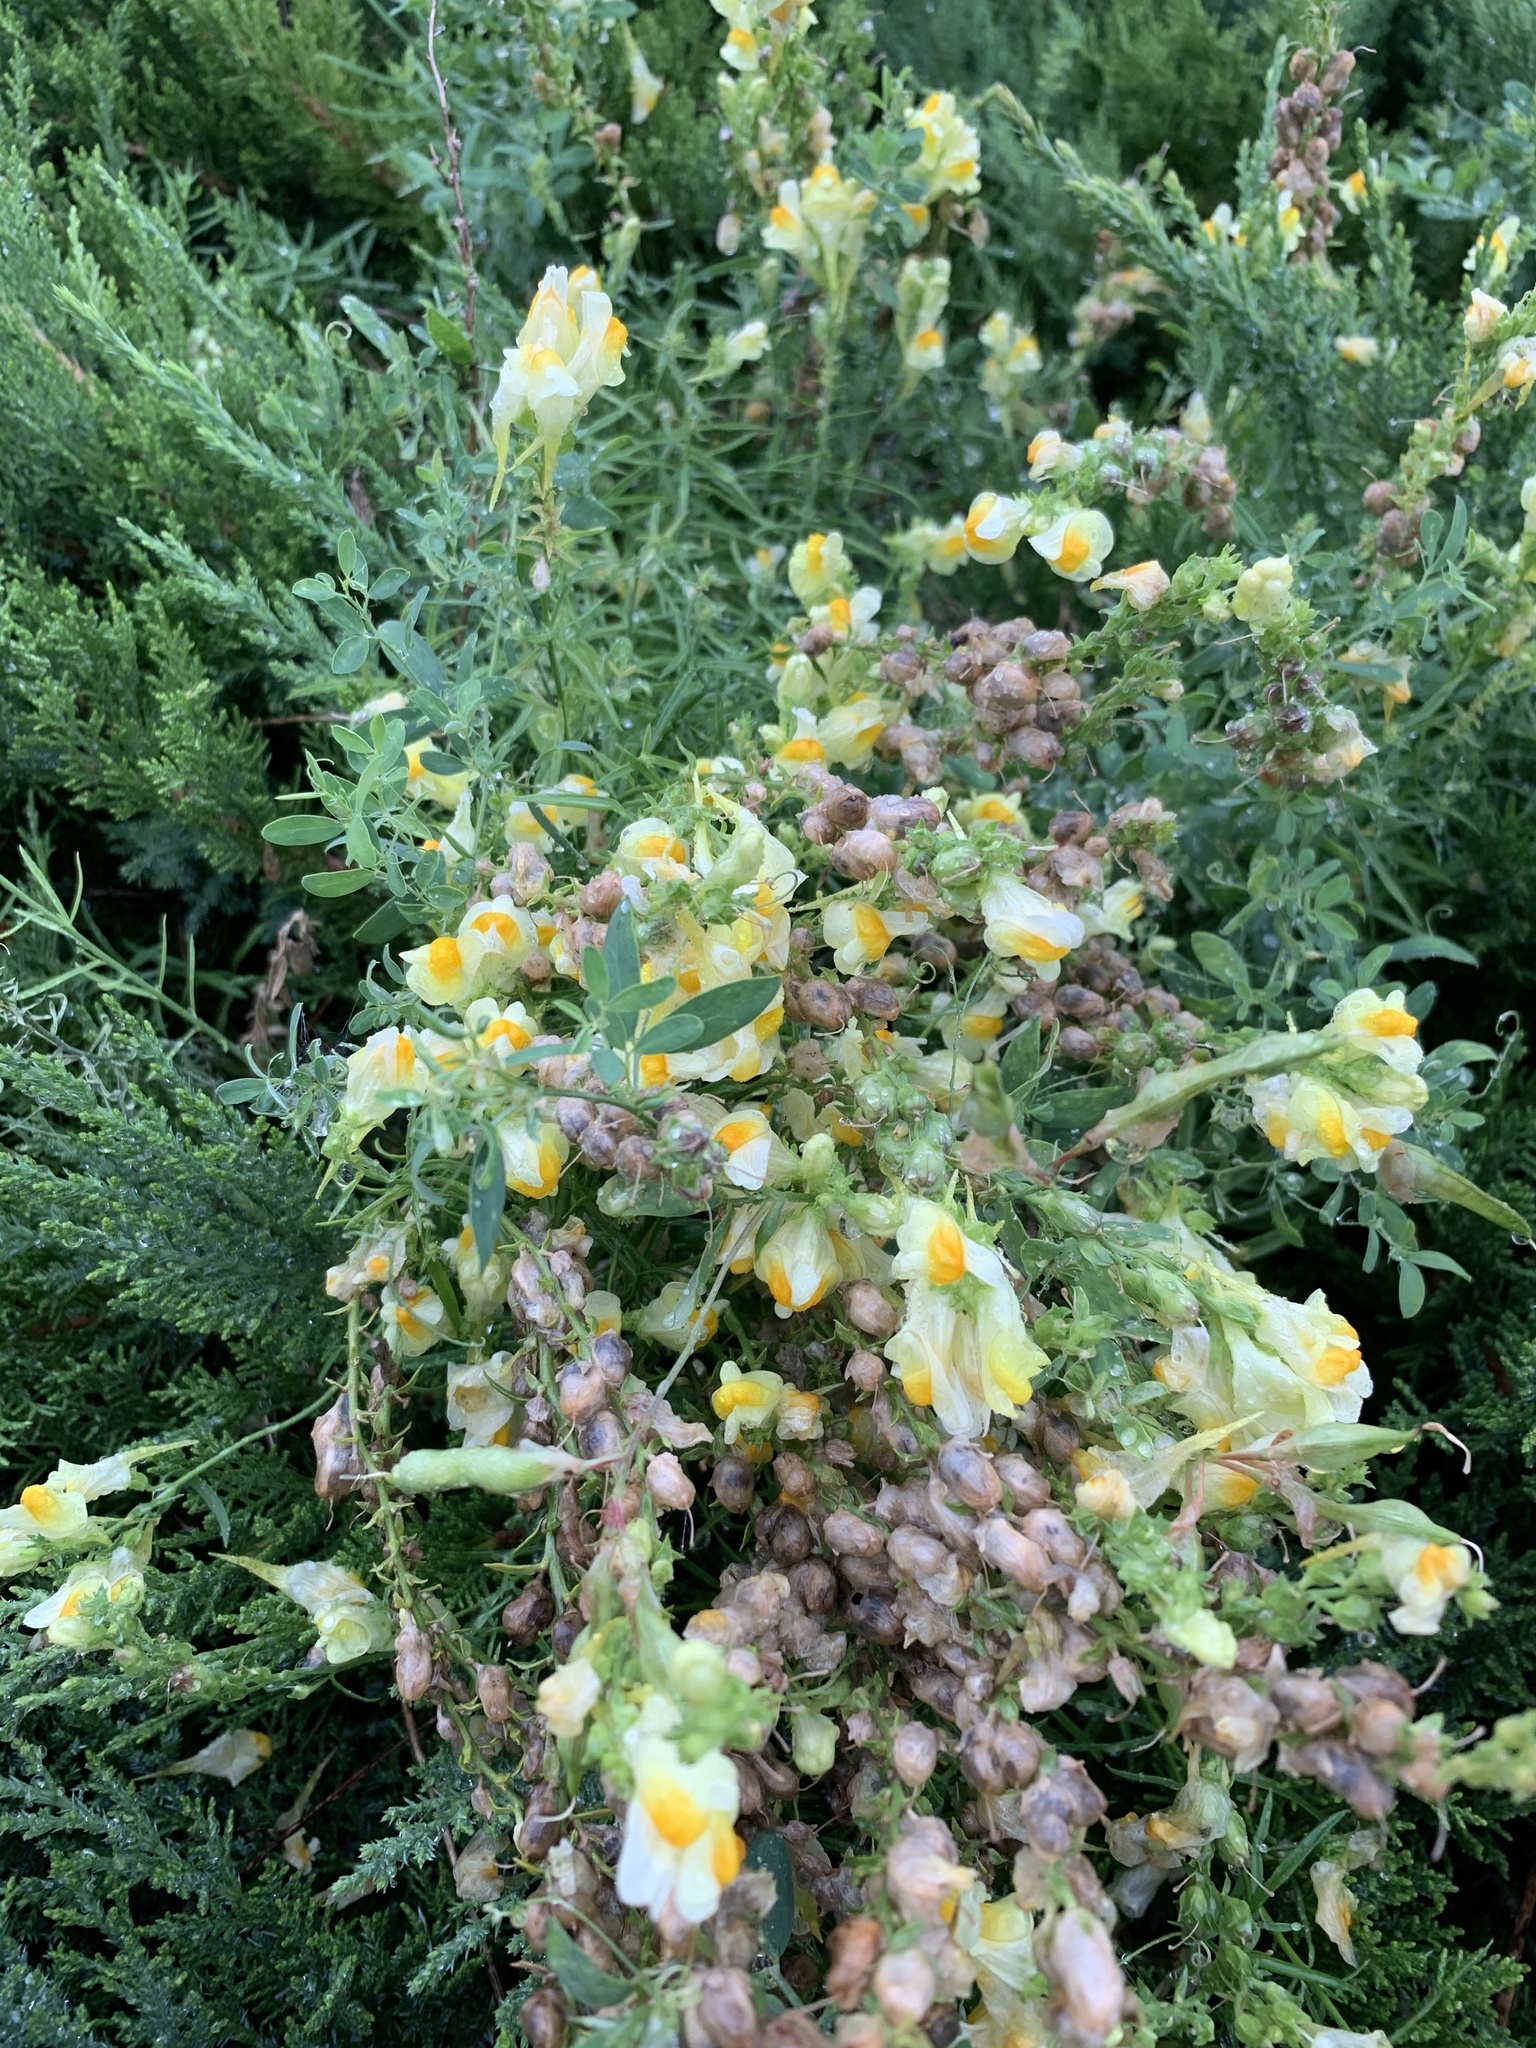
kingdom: Plantae
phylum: Tracheophyta
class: Magnoliopsida
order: Lamiales
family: Plantaginaceae
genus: Linaria
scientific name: Linaria vulgaris
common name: Butter and eggs
